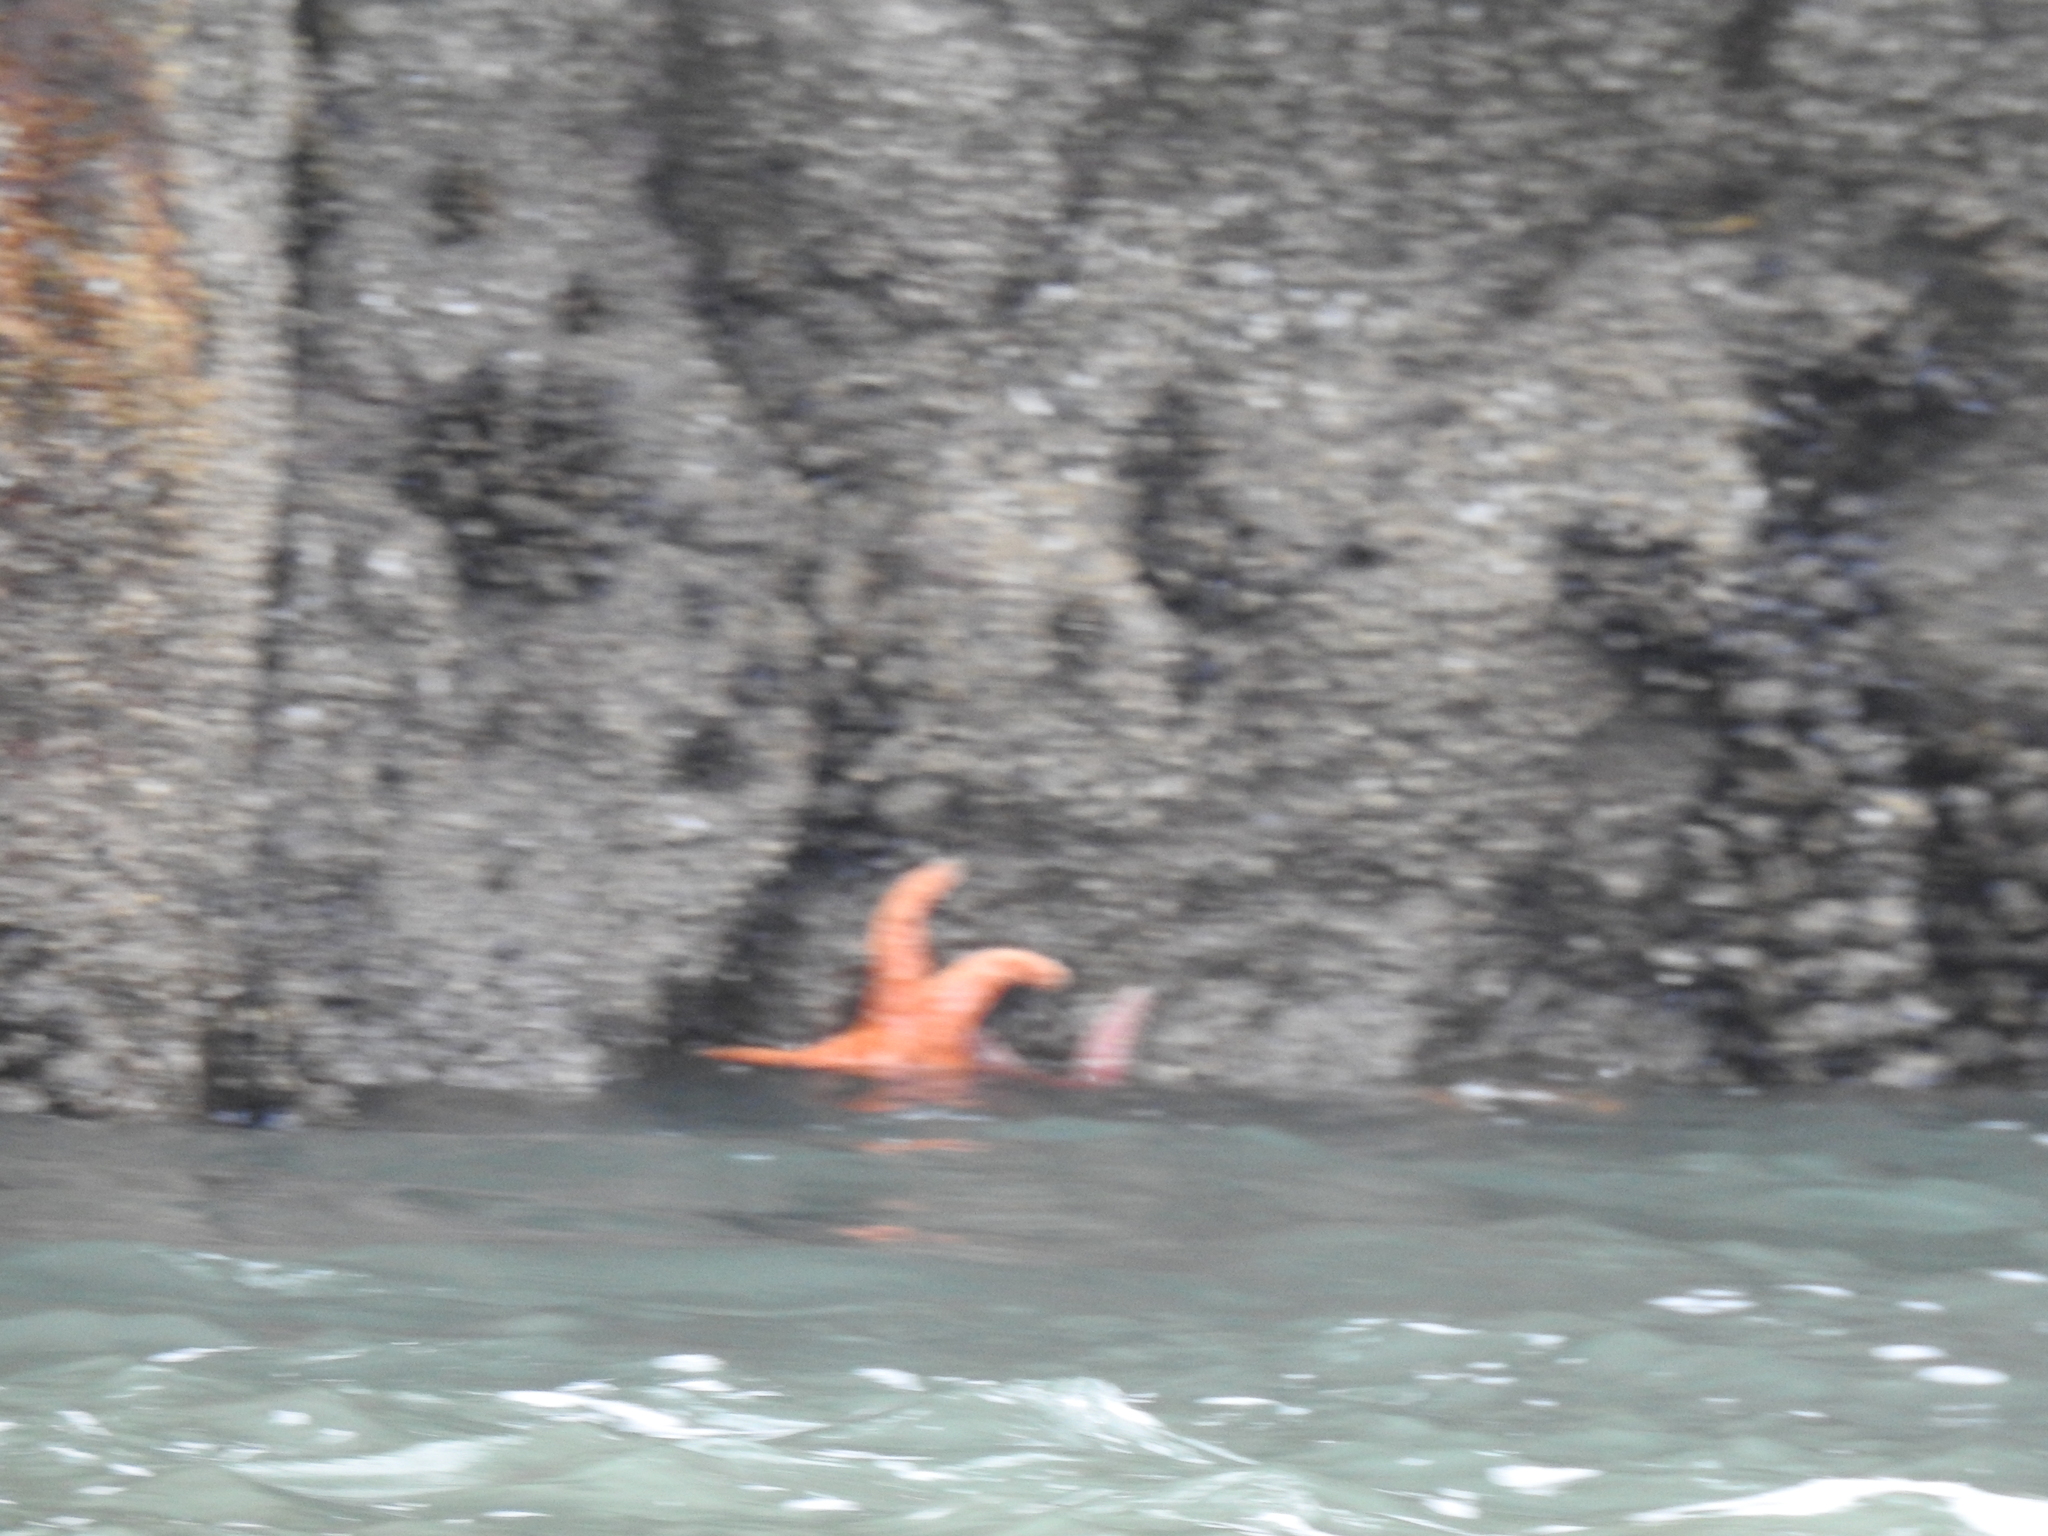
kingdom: Animalia
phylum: Echinodermata
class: Asteroidea
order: Forcipulatida
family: Asteriidae
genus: Pisaster
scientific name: Pisaster ochraceus
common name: Ochre stars
